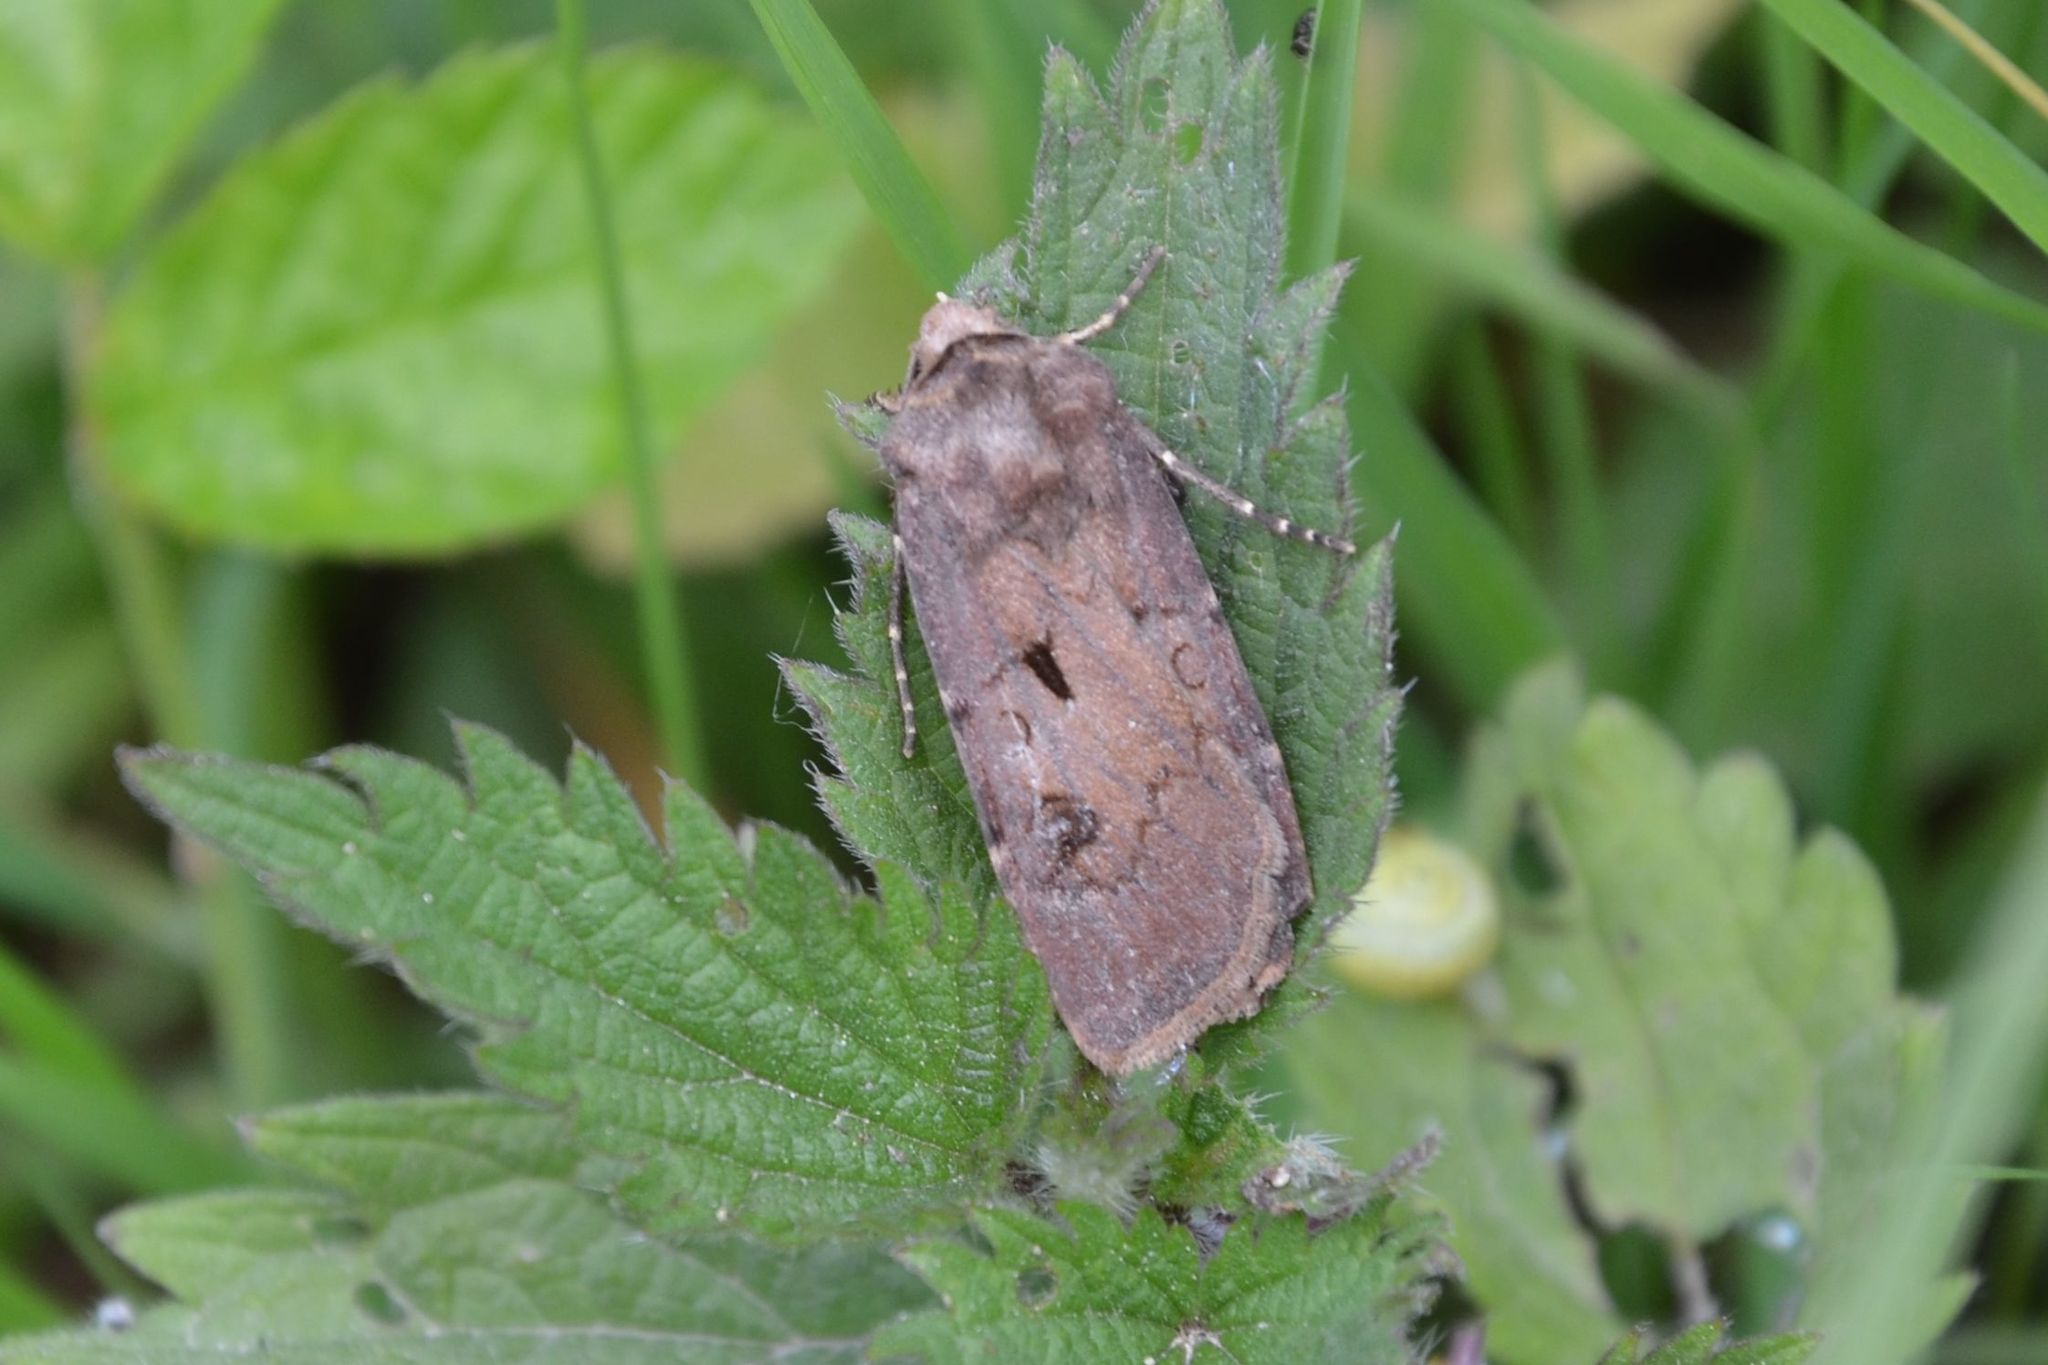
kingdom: Animalia
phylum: Arthropoda
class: Insecta
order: Lepidoptera
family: Noctuidae
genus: Agrotis
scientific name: Agrotis exclamationis
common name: Heart and dart
